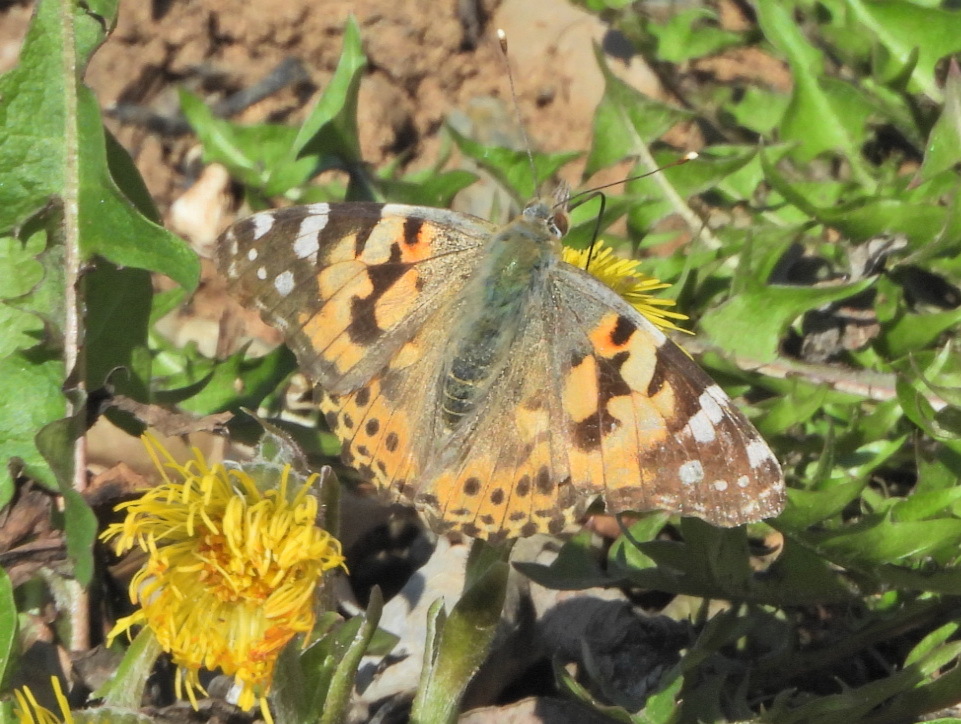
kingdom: Animalia
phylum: Arthropoda
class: Insecta
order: Lepidoptera
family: Nymphalidae
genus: Vanessa
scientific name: Vanessa cardui
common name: Painted lady
